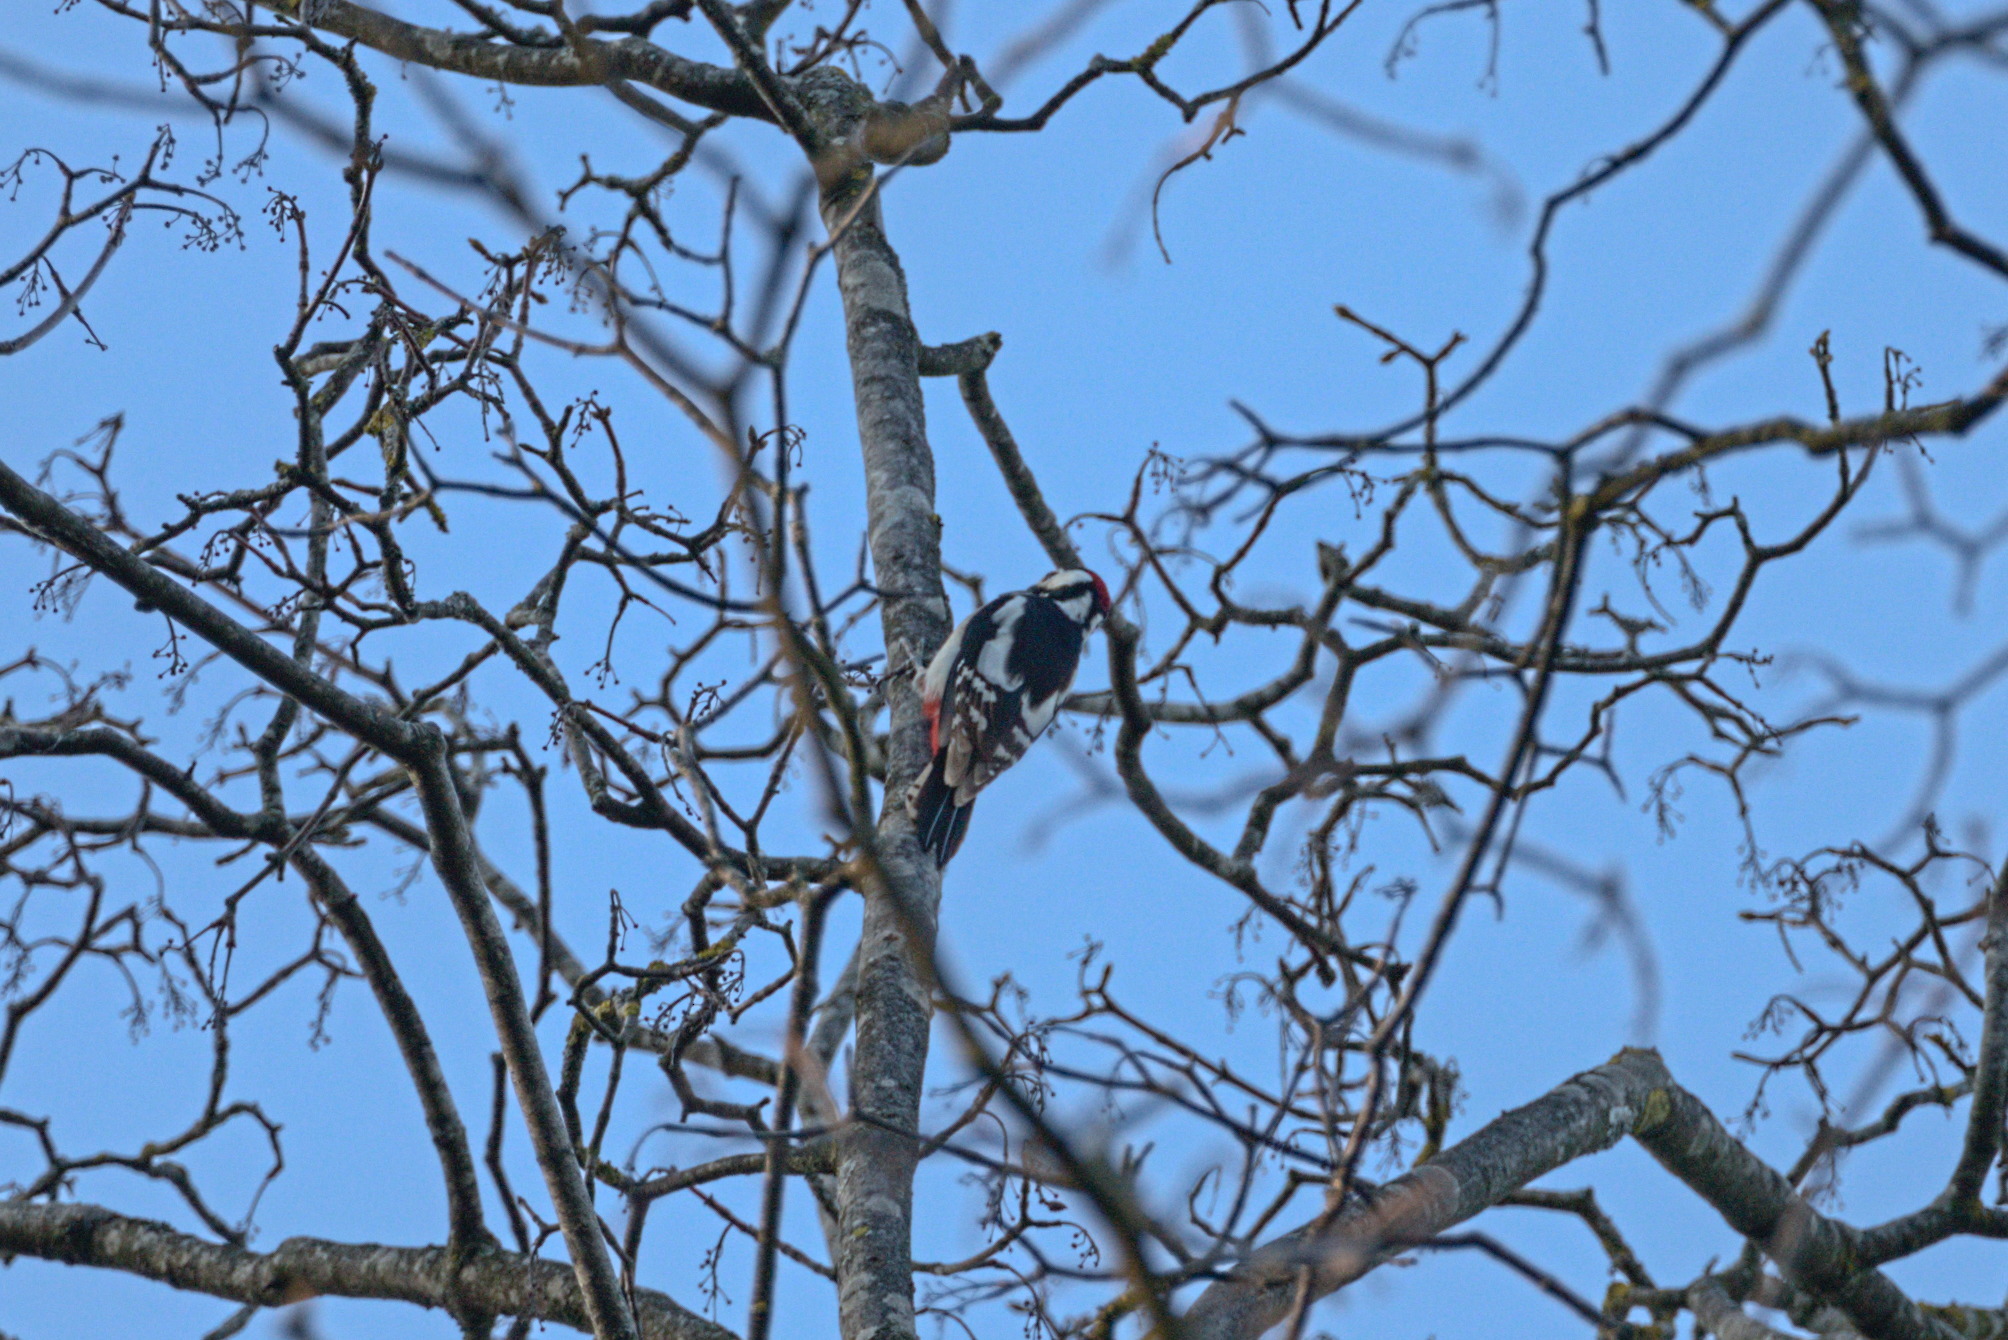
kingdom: Animalia
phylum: Chordata
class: Aves
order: Piciformes
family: Picidae
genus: Dendrocopos
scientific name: Dendrocopos major
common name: Great spotted woodpecker
